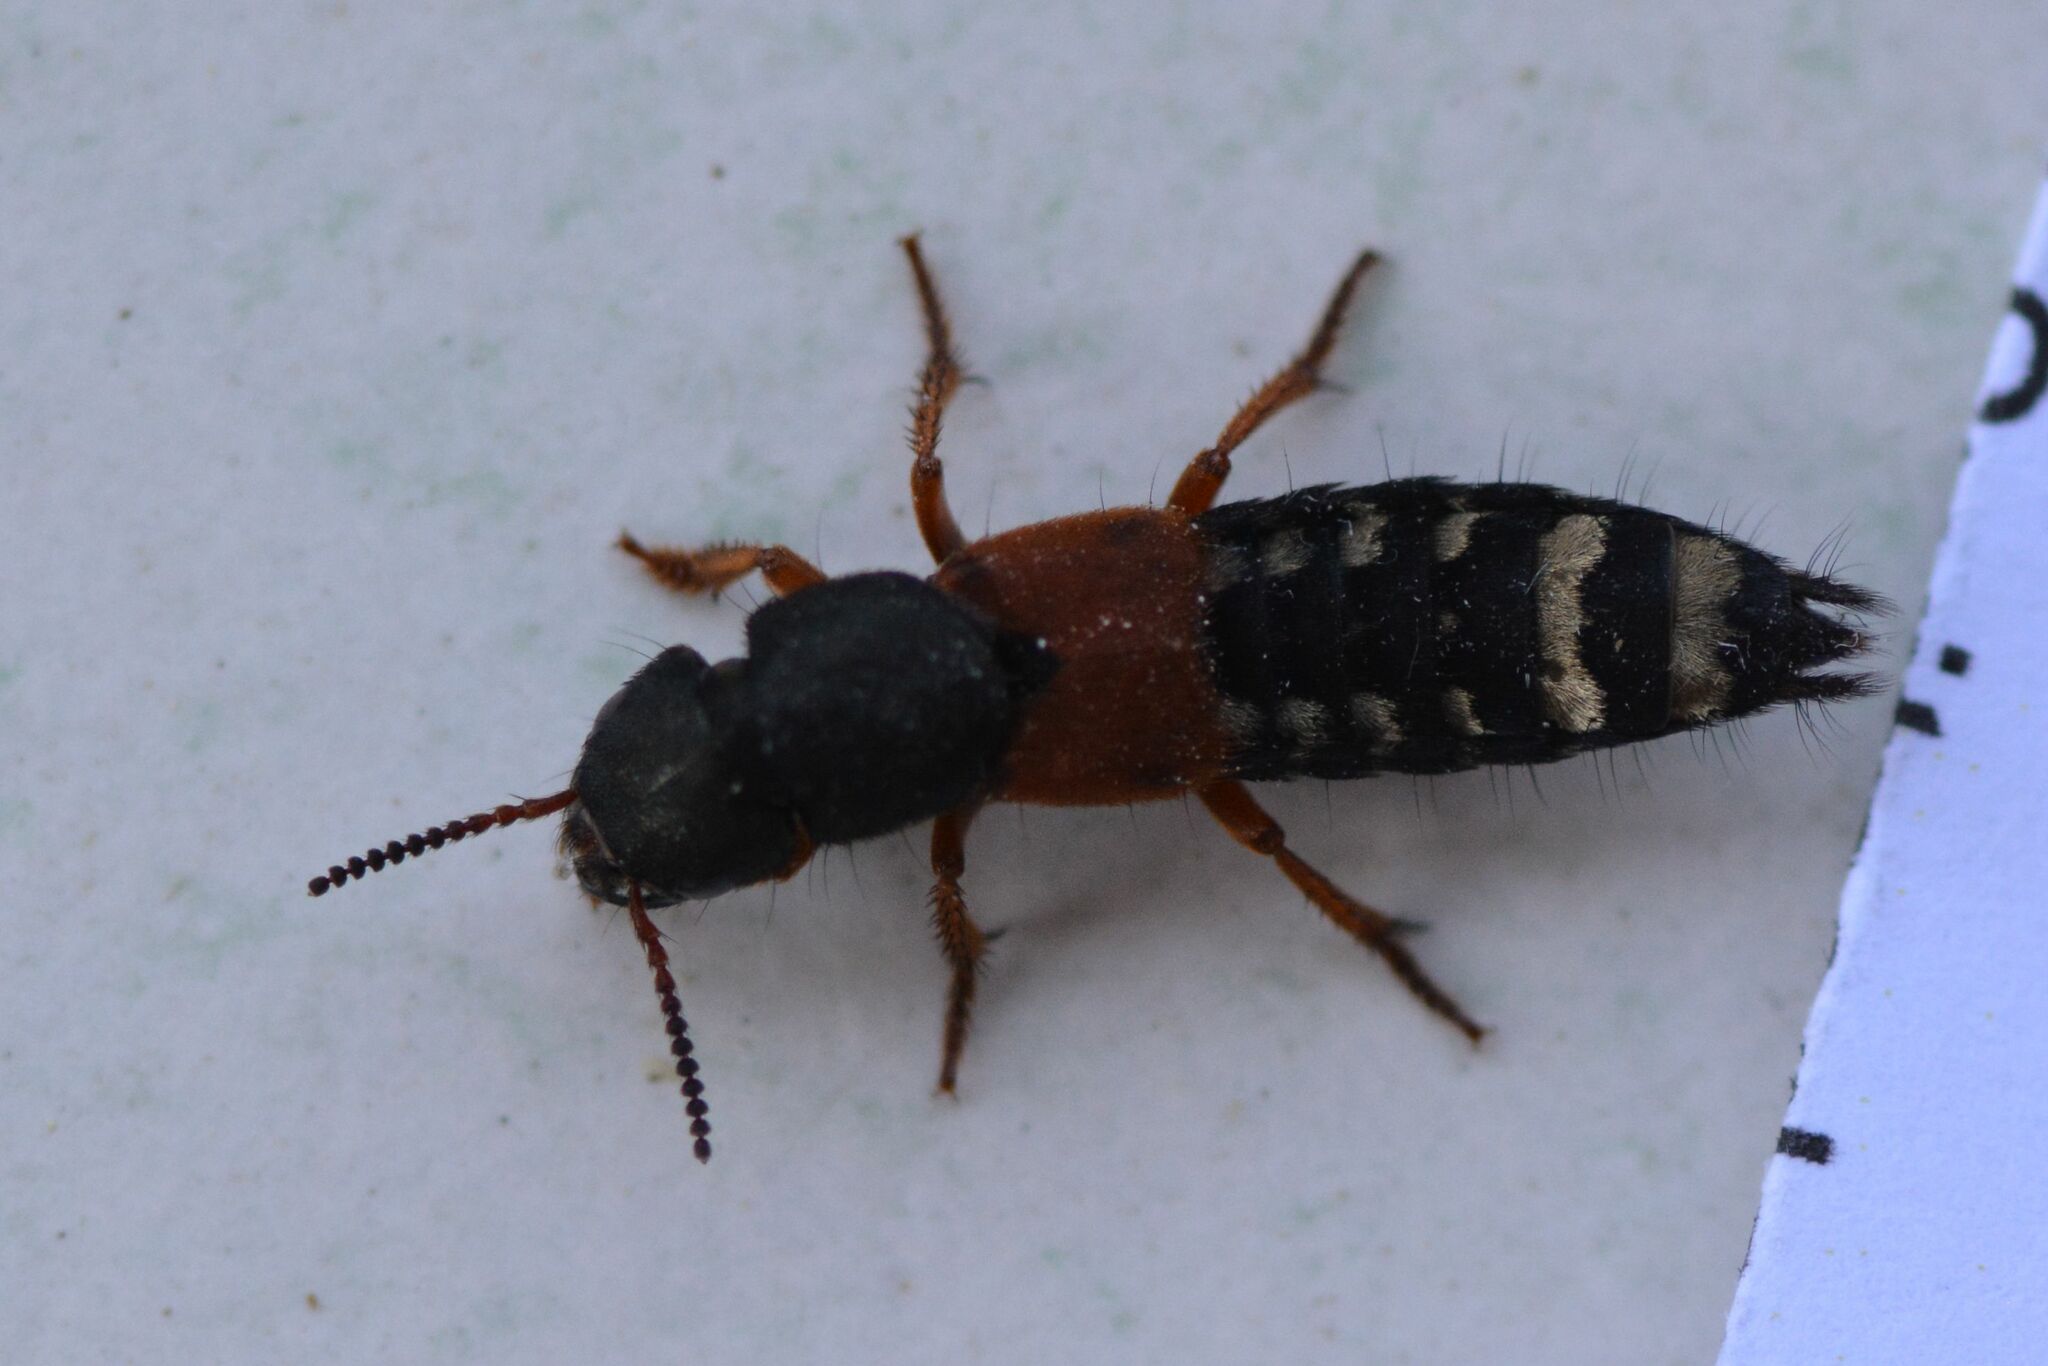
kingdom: Animalia
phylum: Arthropoda
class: Insecta
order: Coleoptera
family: Staphylinidae
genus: Platydracus
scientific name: Platydracus stercorarius
